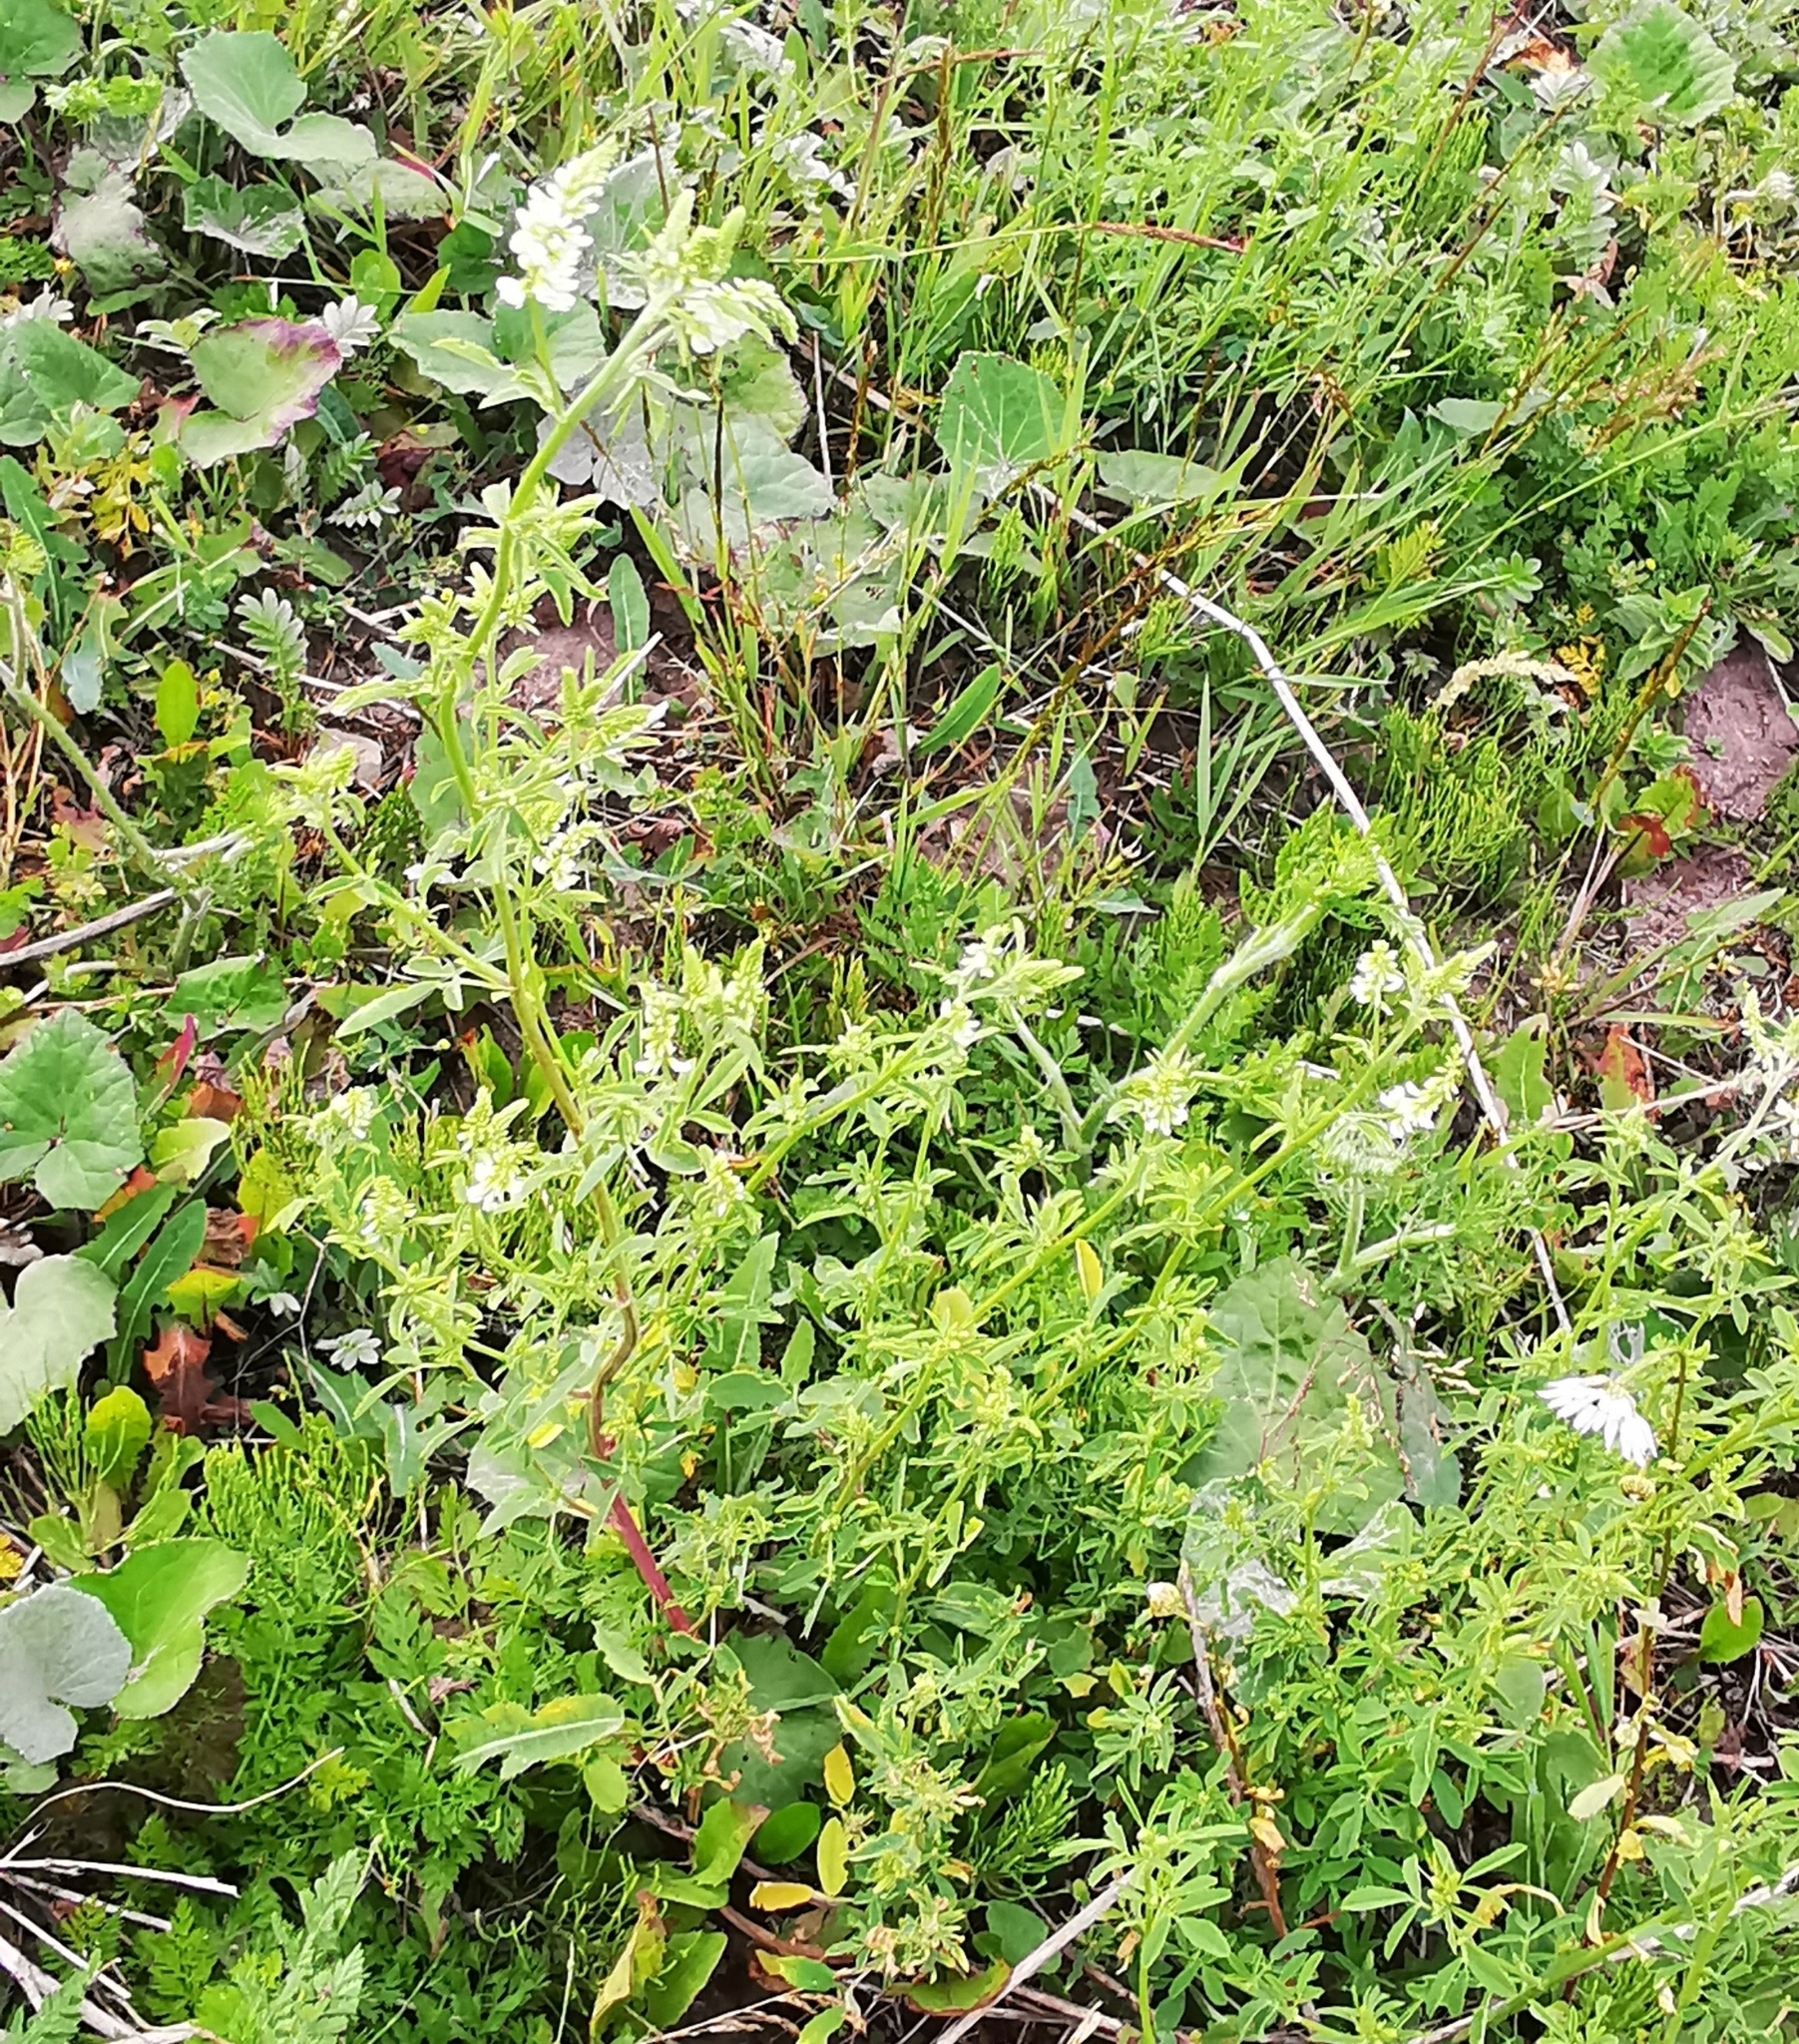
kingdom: Plantae
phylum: Tracheophyta
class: Magnoliopsida
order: Fabales
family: Fabaceae
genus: Melilotus
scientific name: Melilotus albus
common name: White melilot
